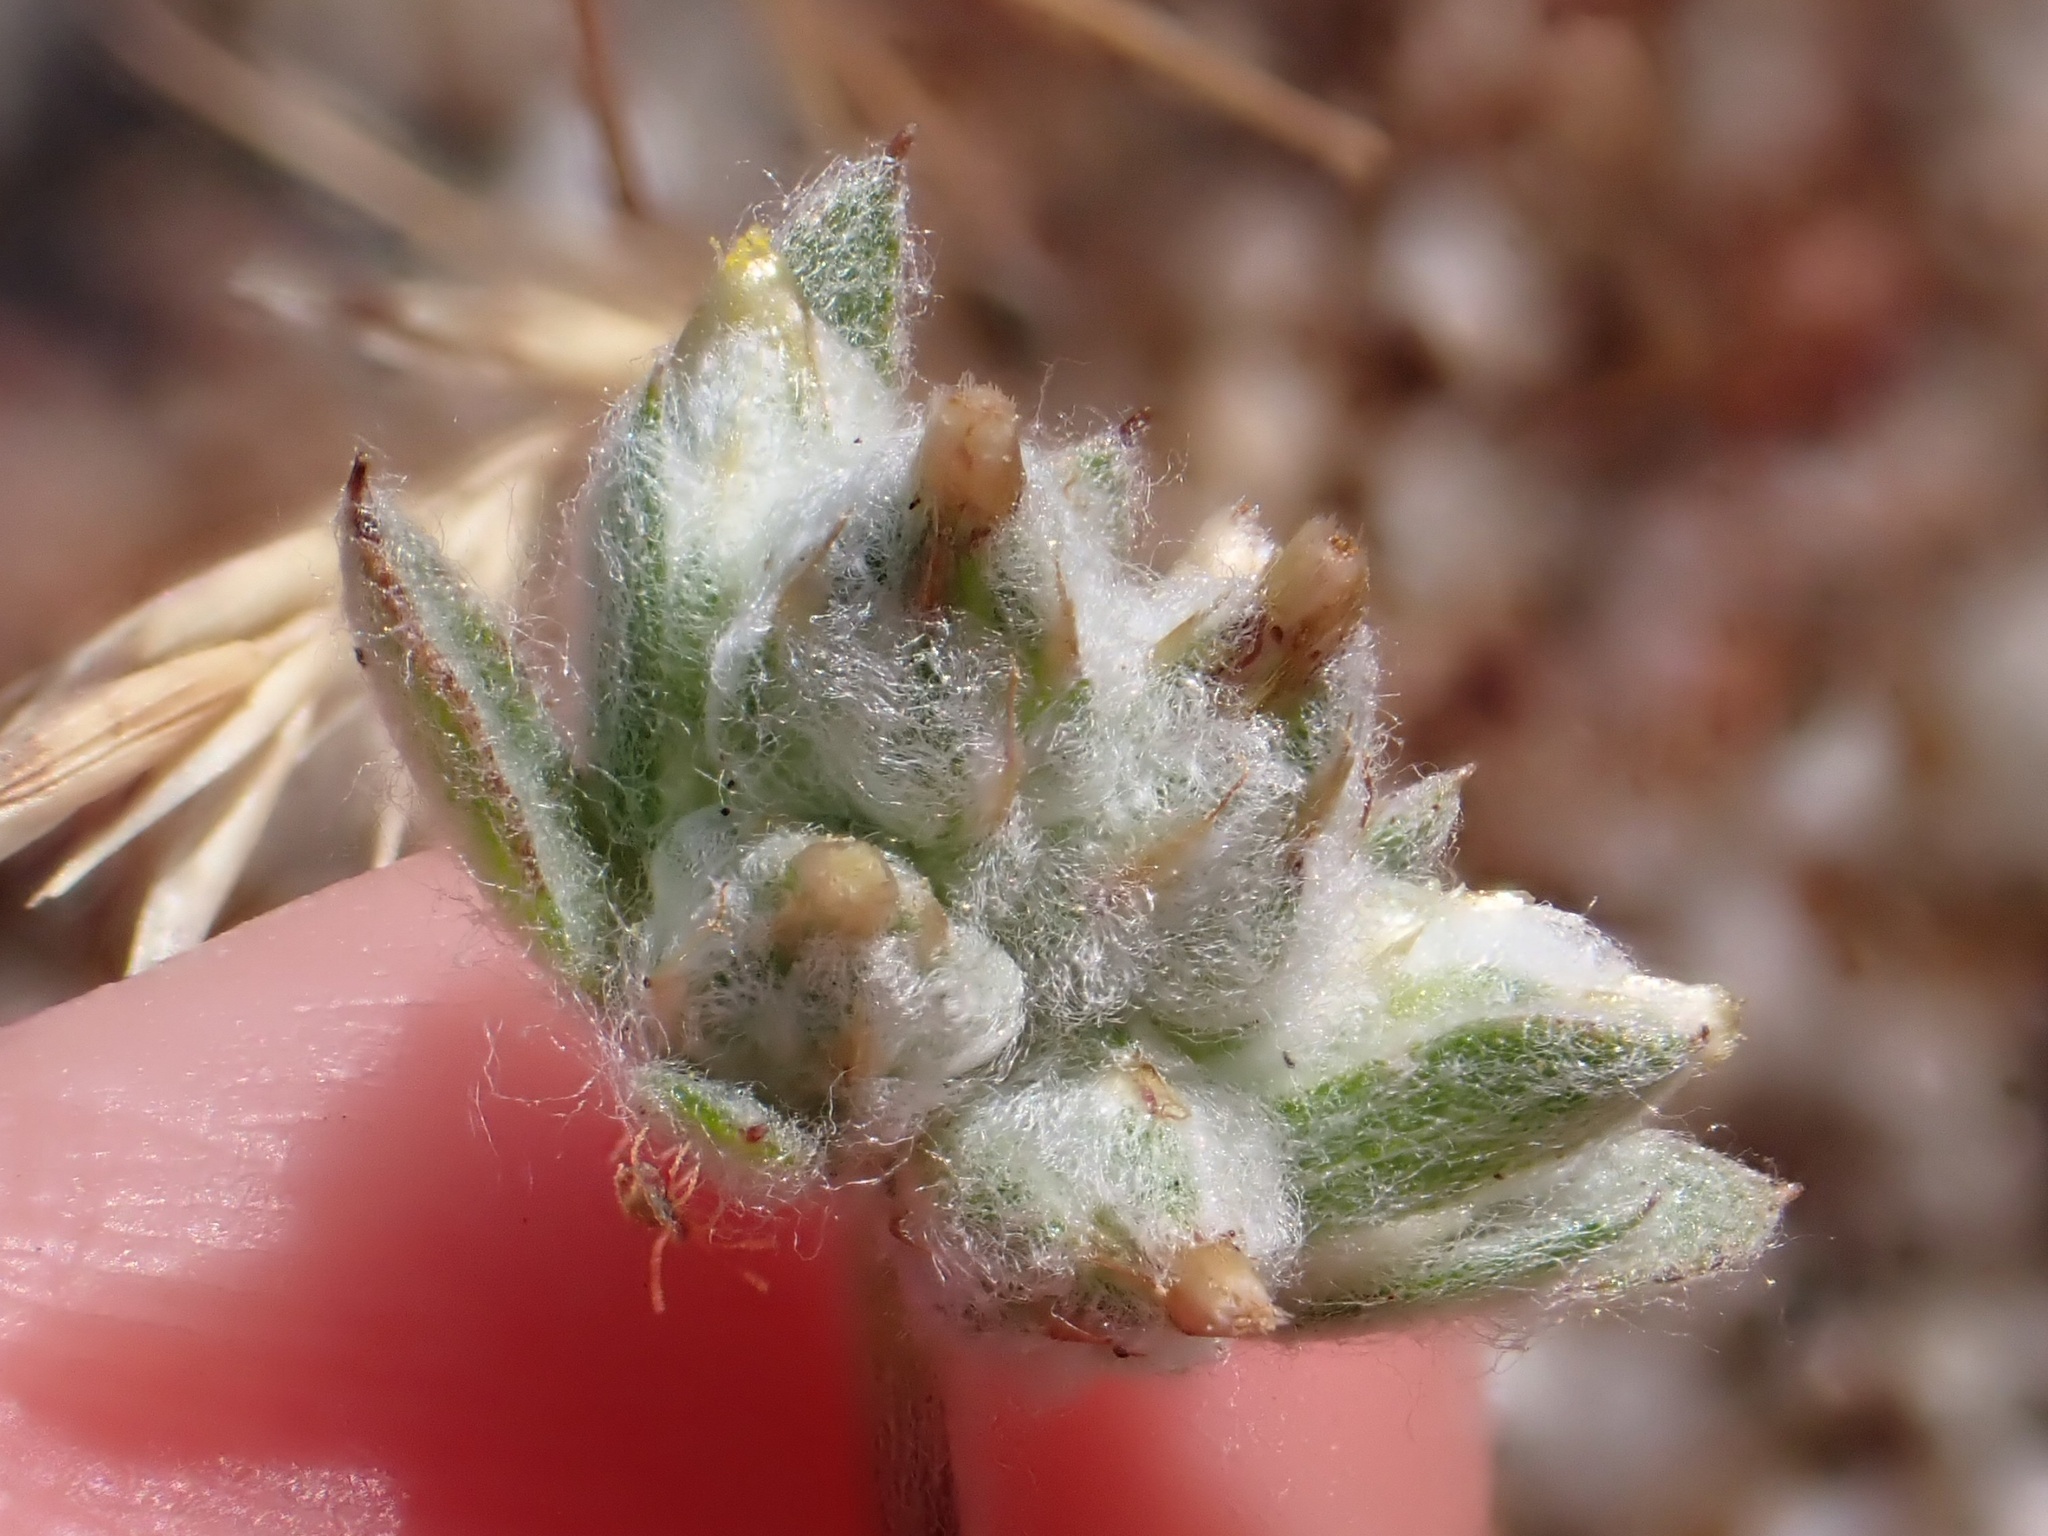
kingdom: Plantae
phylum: Tracheophyta
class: Magnoliopsida
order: Asterales
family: Asteraceae
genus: Logfia
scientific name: Logfia californica
